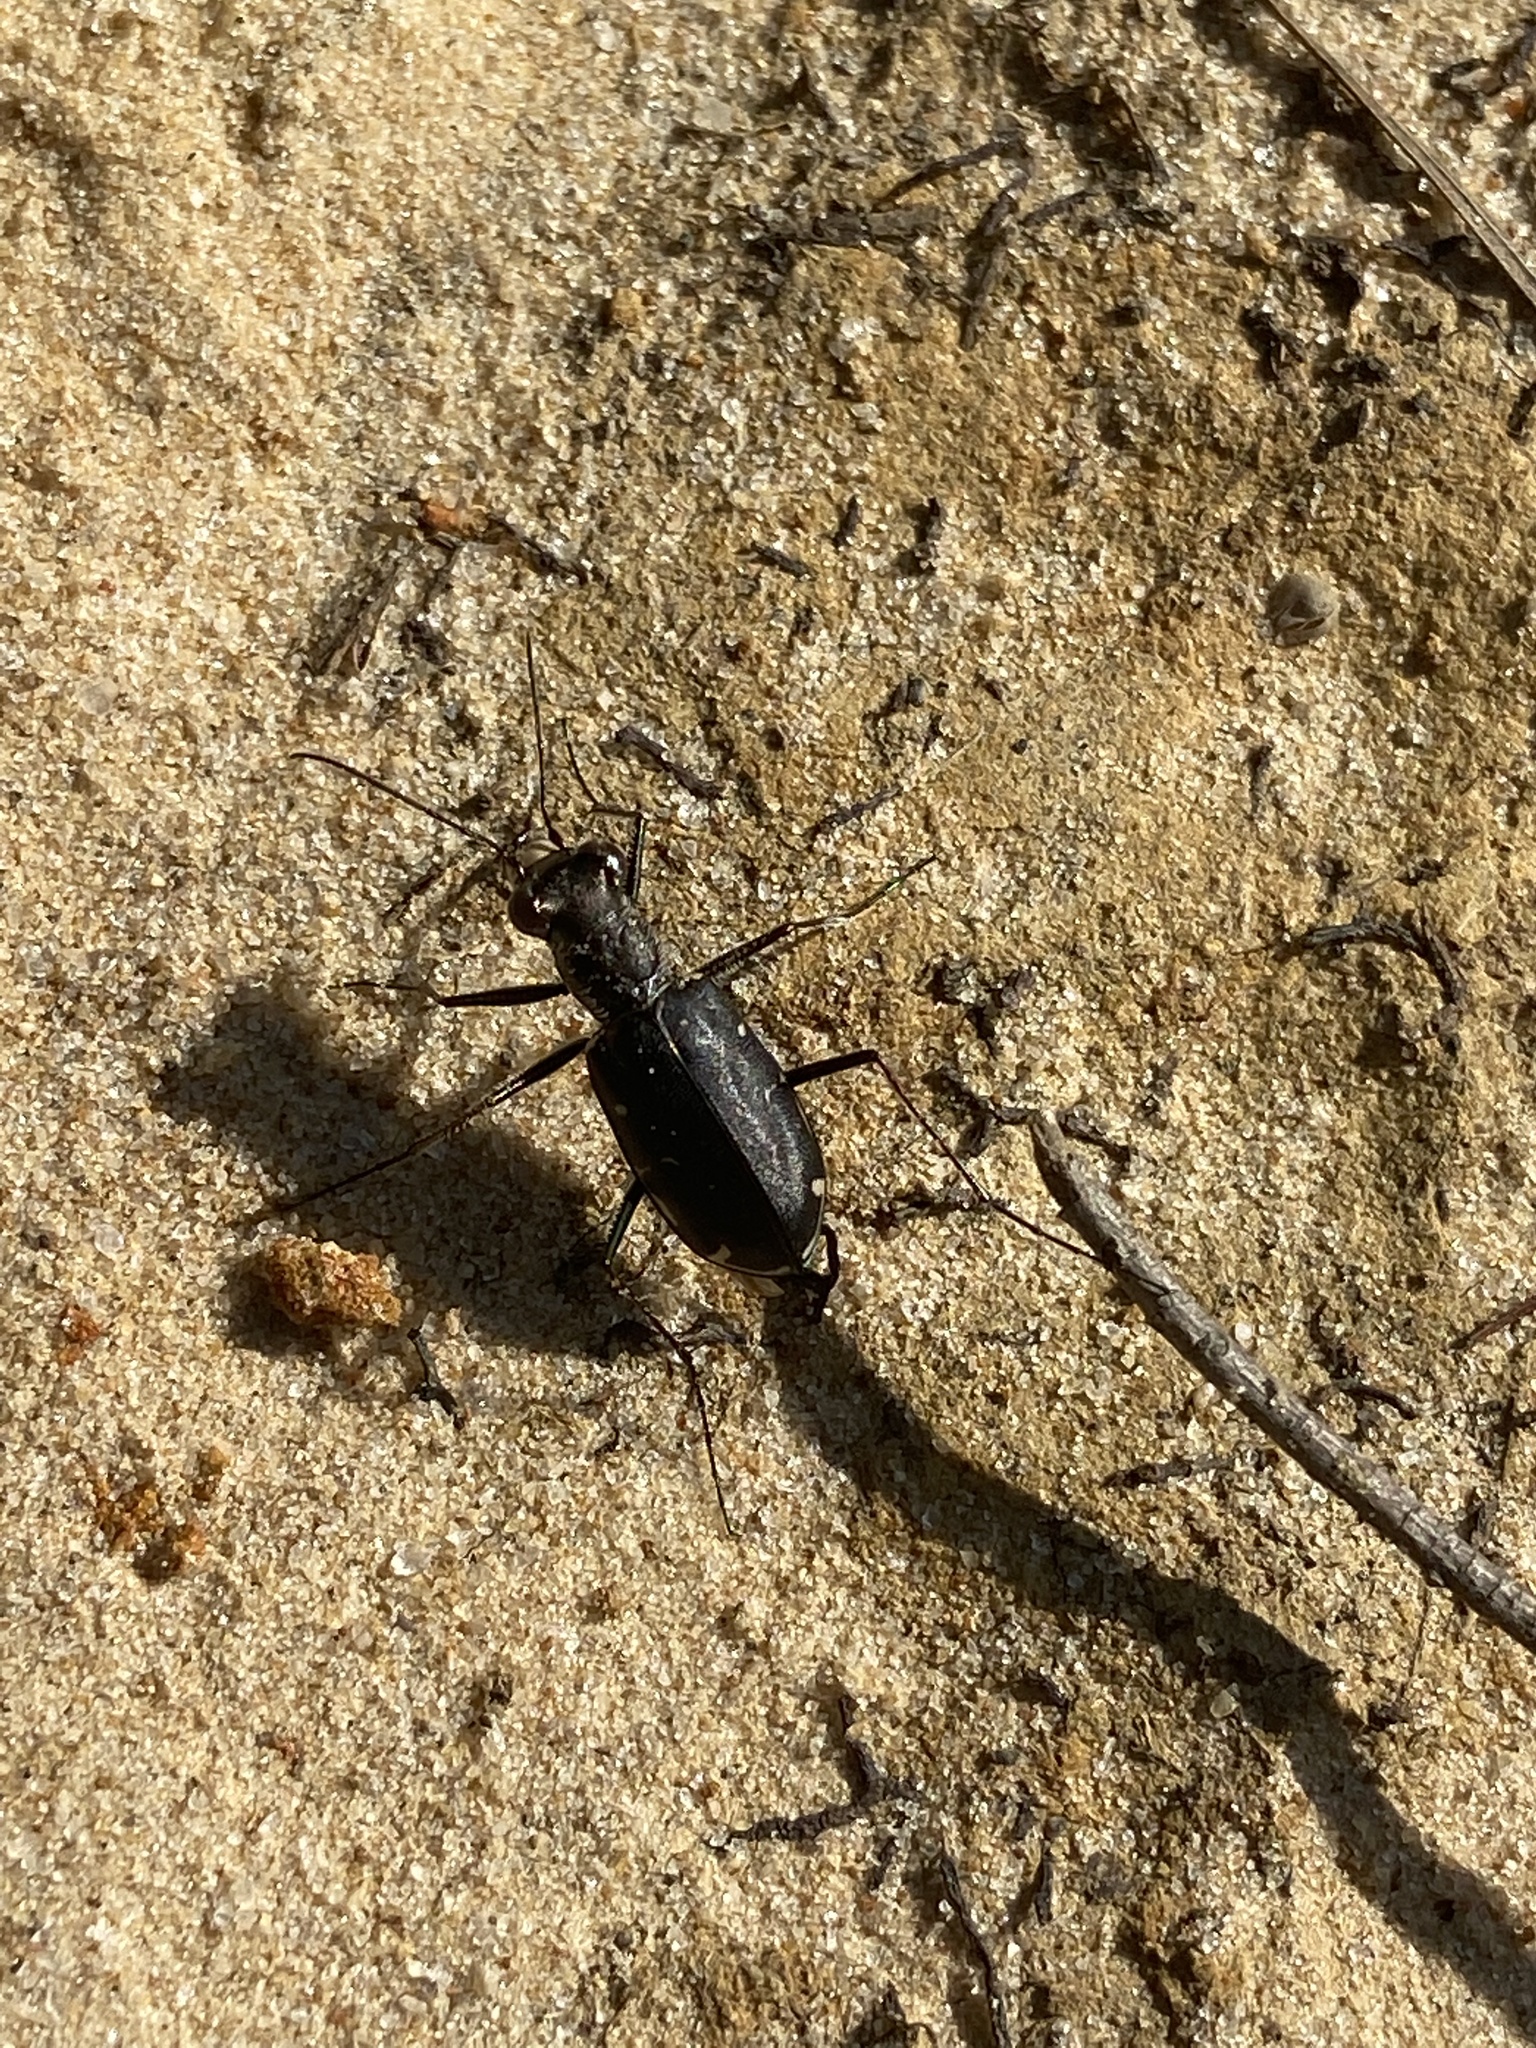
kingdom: Animalia
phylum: Arthropoda
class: Insecta
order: Coleoptera
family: Carabidae
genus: Cicindela
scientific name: Cicindela punctulata
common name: Punctured tiger beetle
